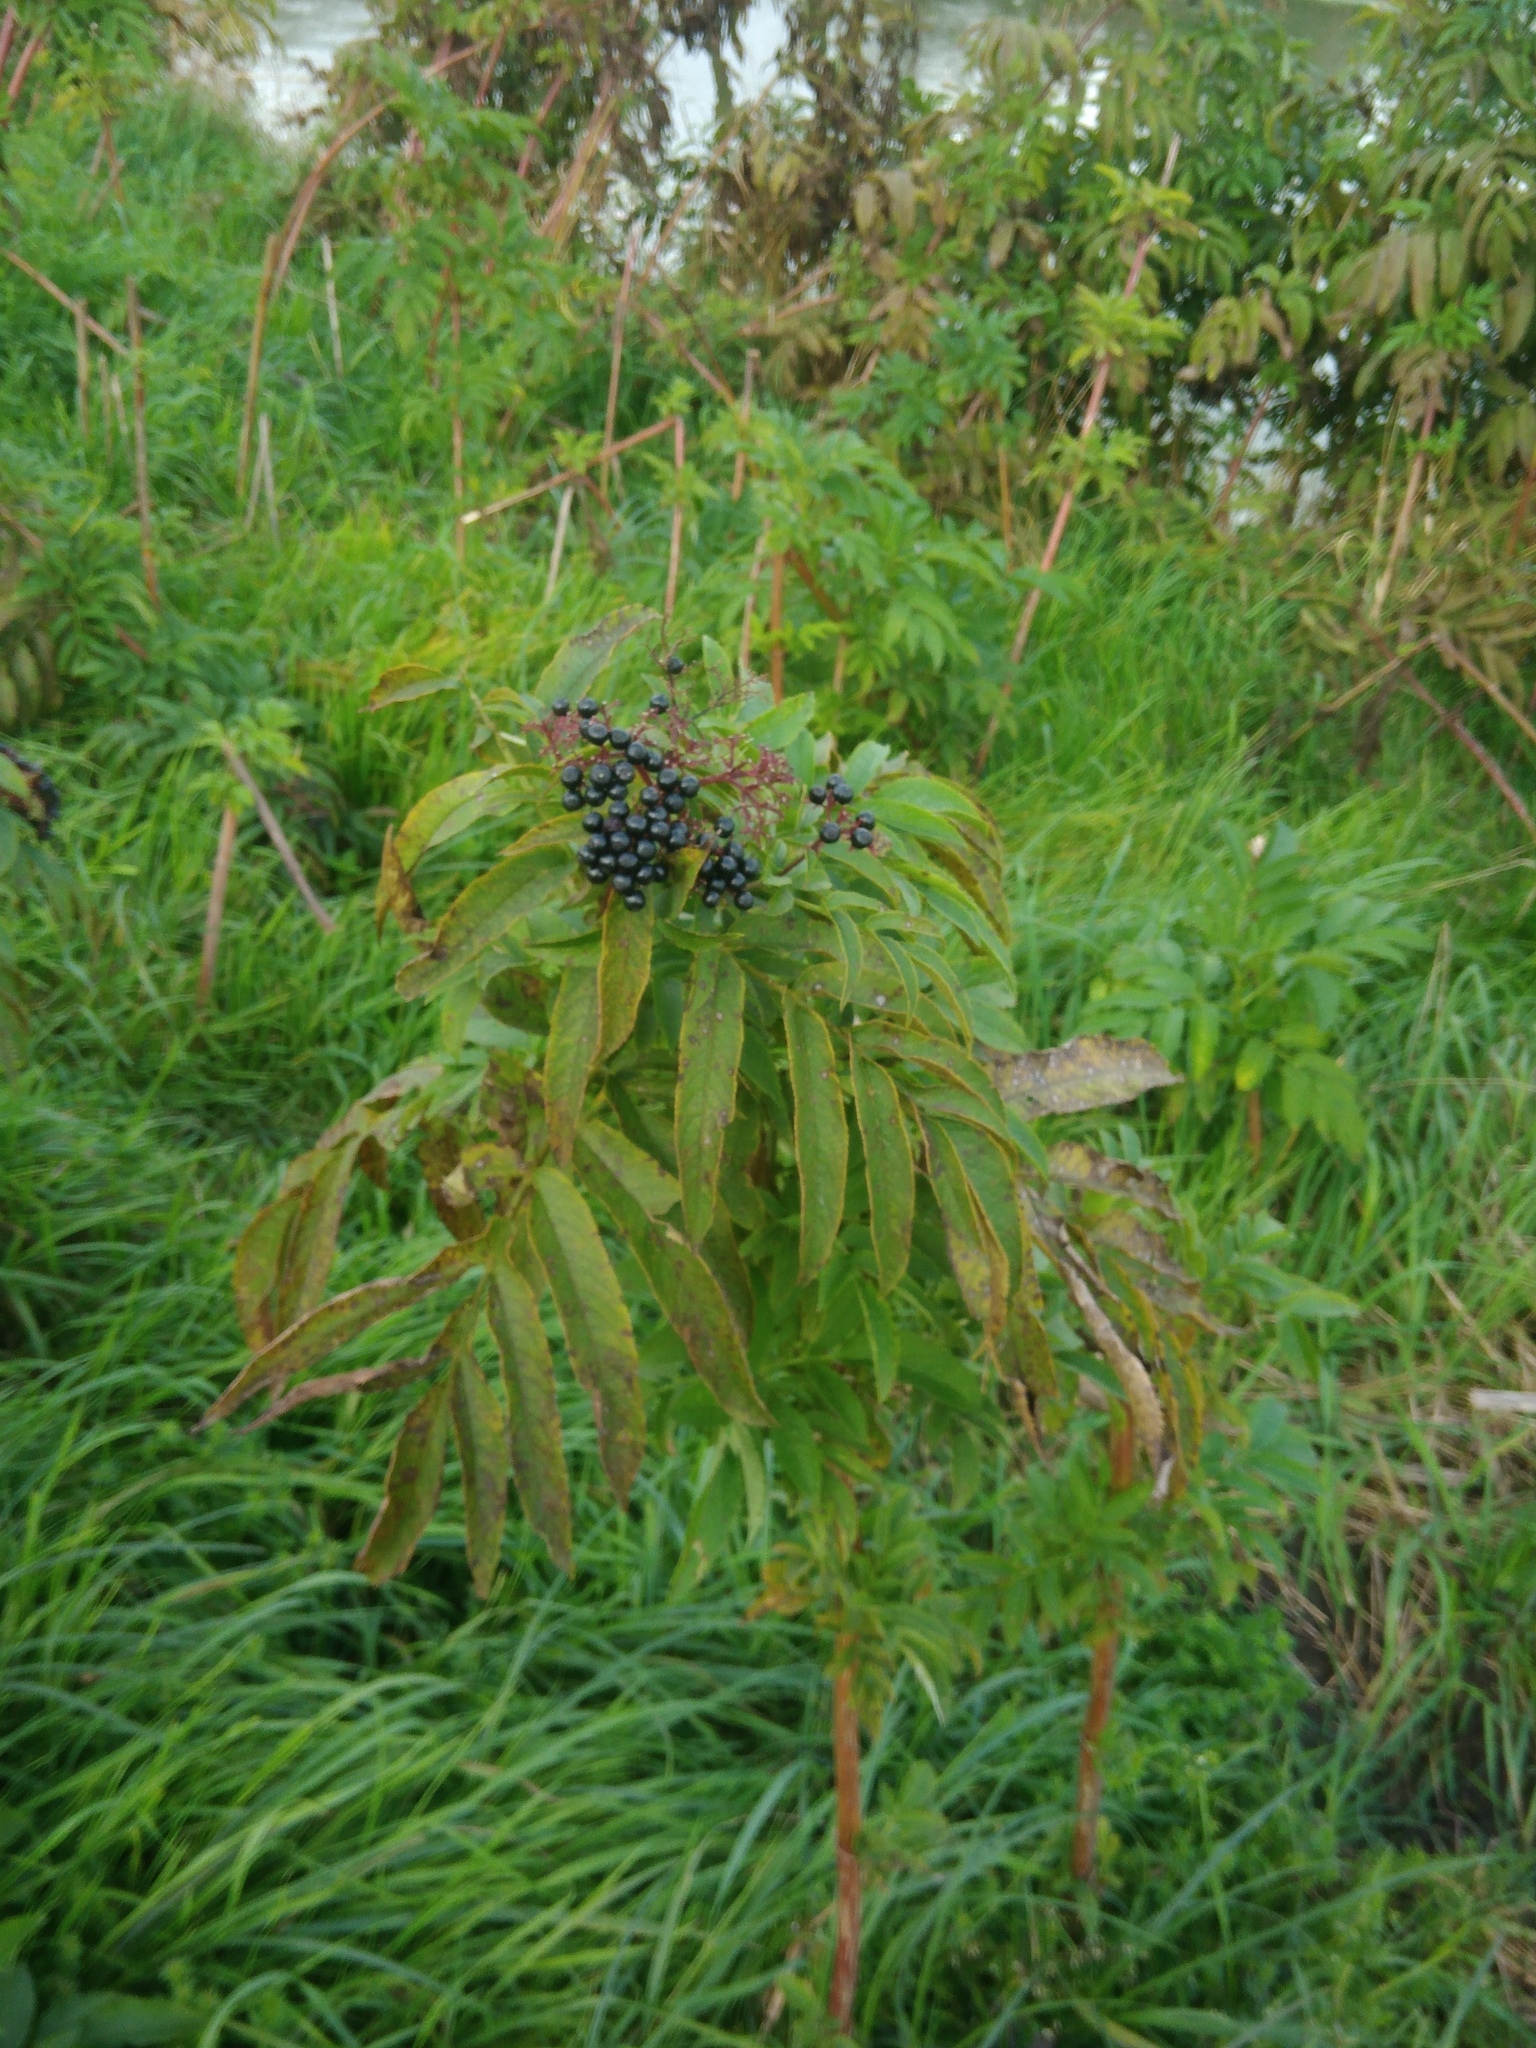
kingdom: Plantae
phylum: Tracheophyta
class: Magnoliopsida
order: Dipsacales
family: Viburnaceae
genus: Sambucus
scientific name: Sambucus ebulus
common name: Dwarf elder
